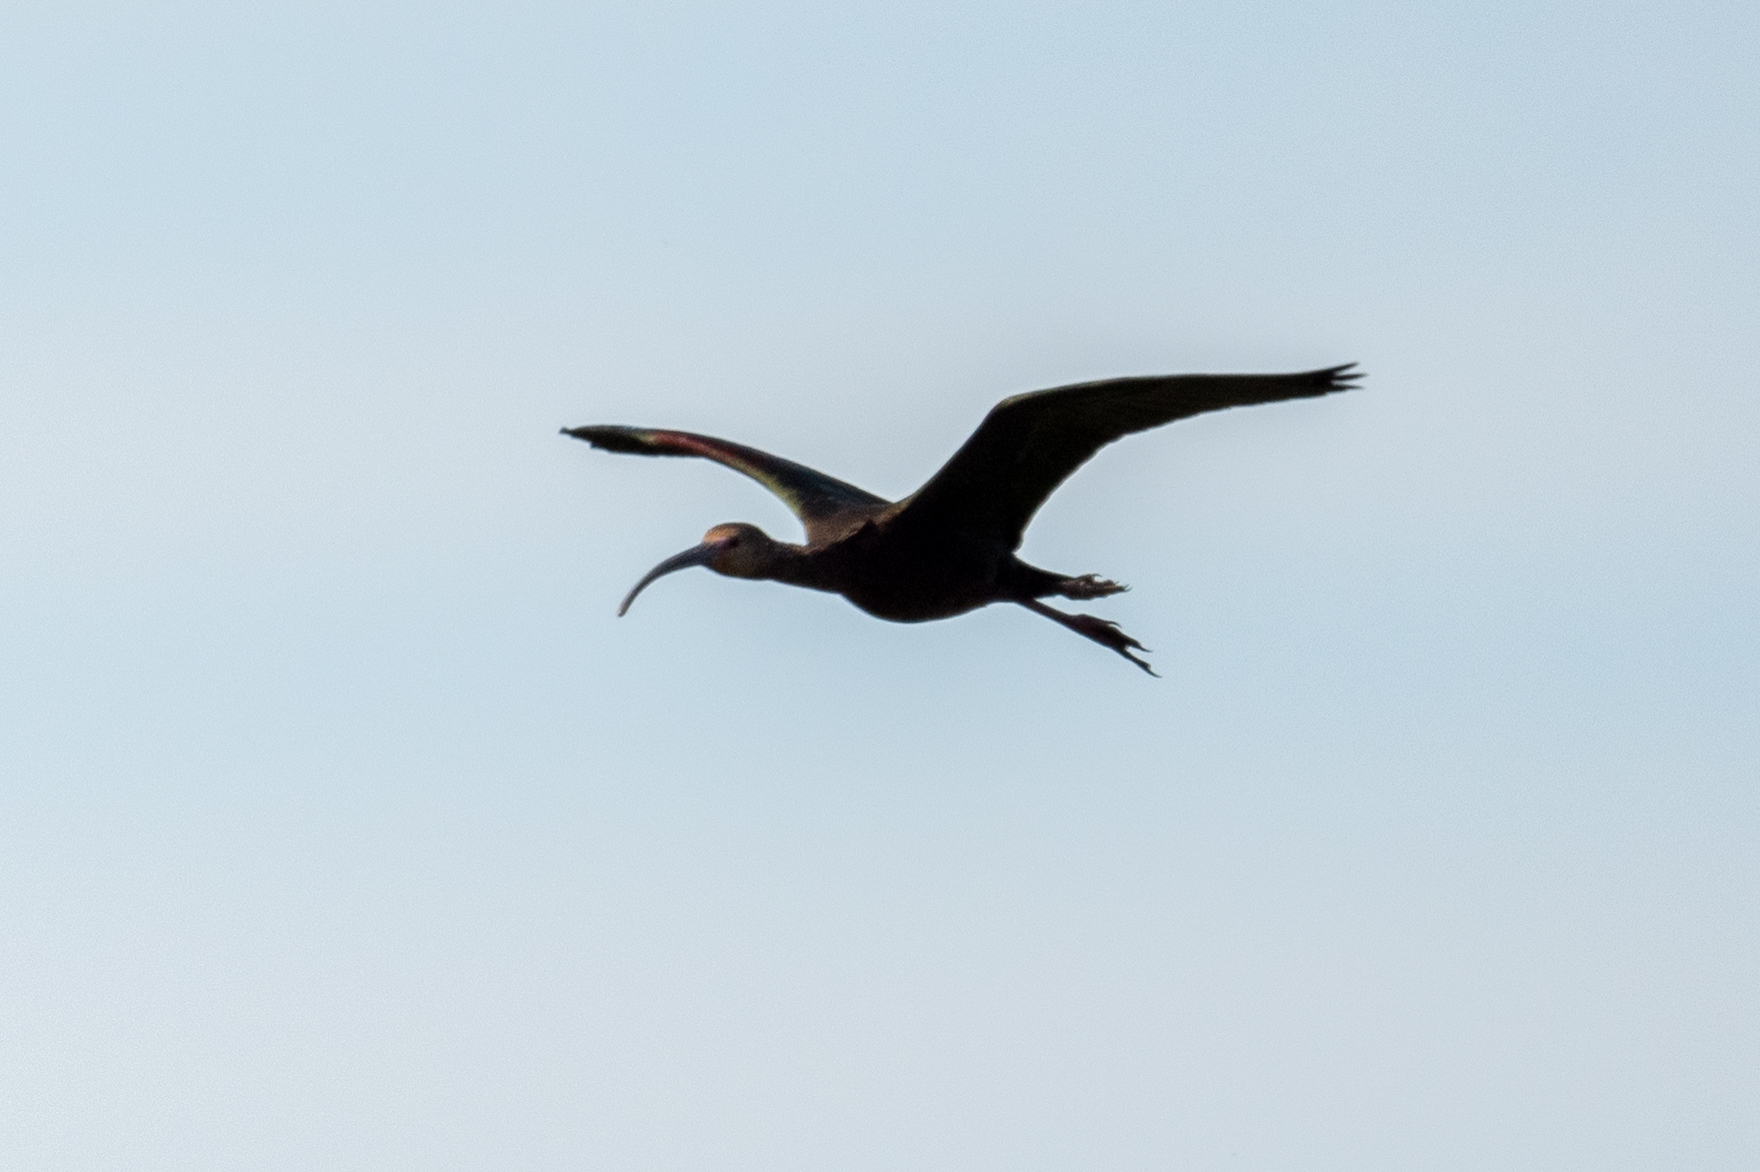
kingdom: Animalia
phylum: Chordata
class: Aves
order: Pelecaniformes
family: Threskiornithidae
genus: Plegadis
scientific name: Plegadis chihi
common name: White-faced ibis
